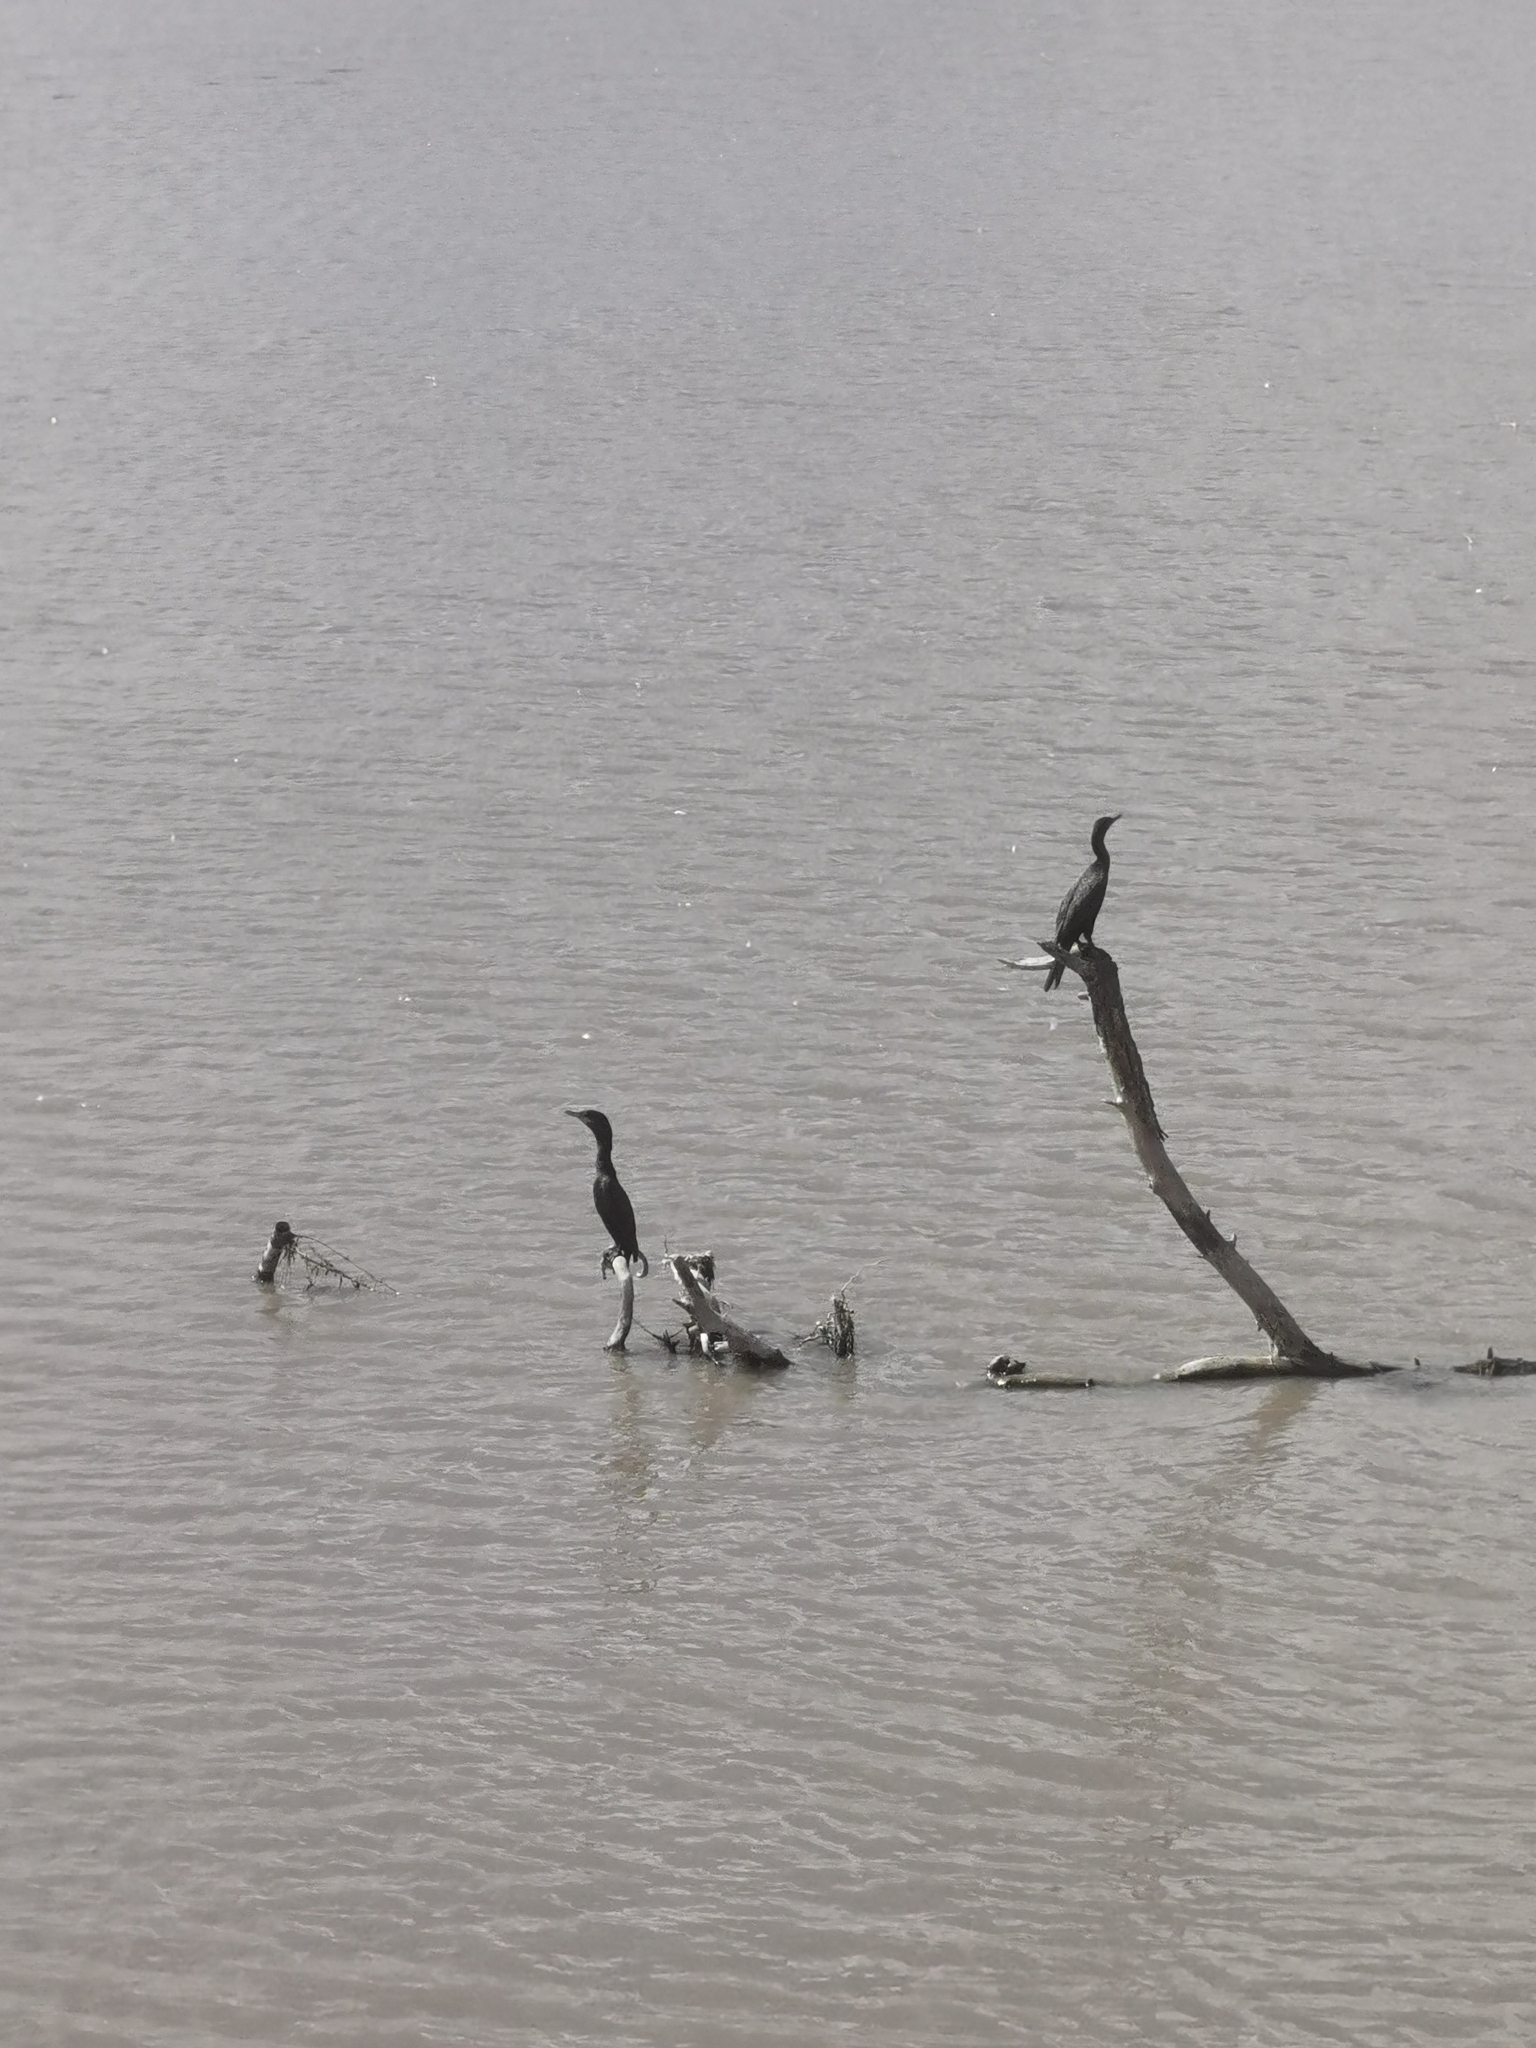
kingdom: Animalia
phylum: Chordata
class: Aves
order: Suliformes
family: Phalacrocoracidae
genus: Phalacrocorax
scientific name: Phalacrocorax brasilianus
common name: Neotropic cormorant
